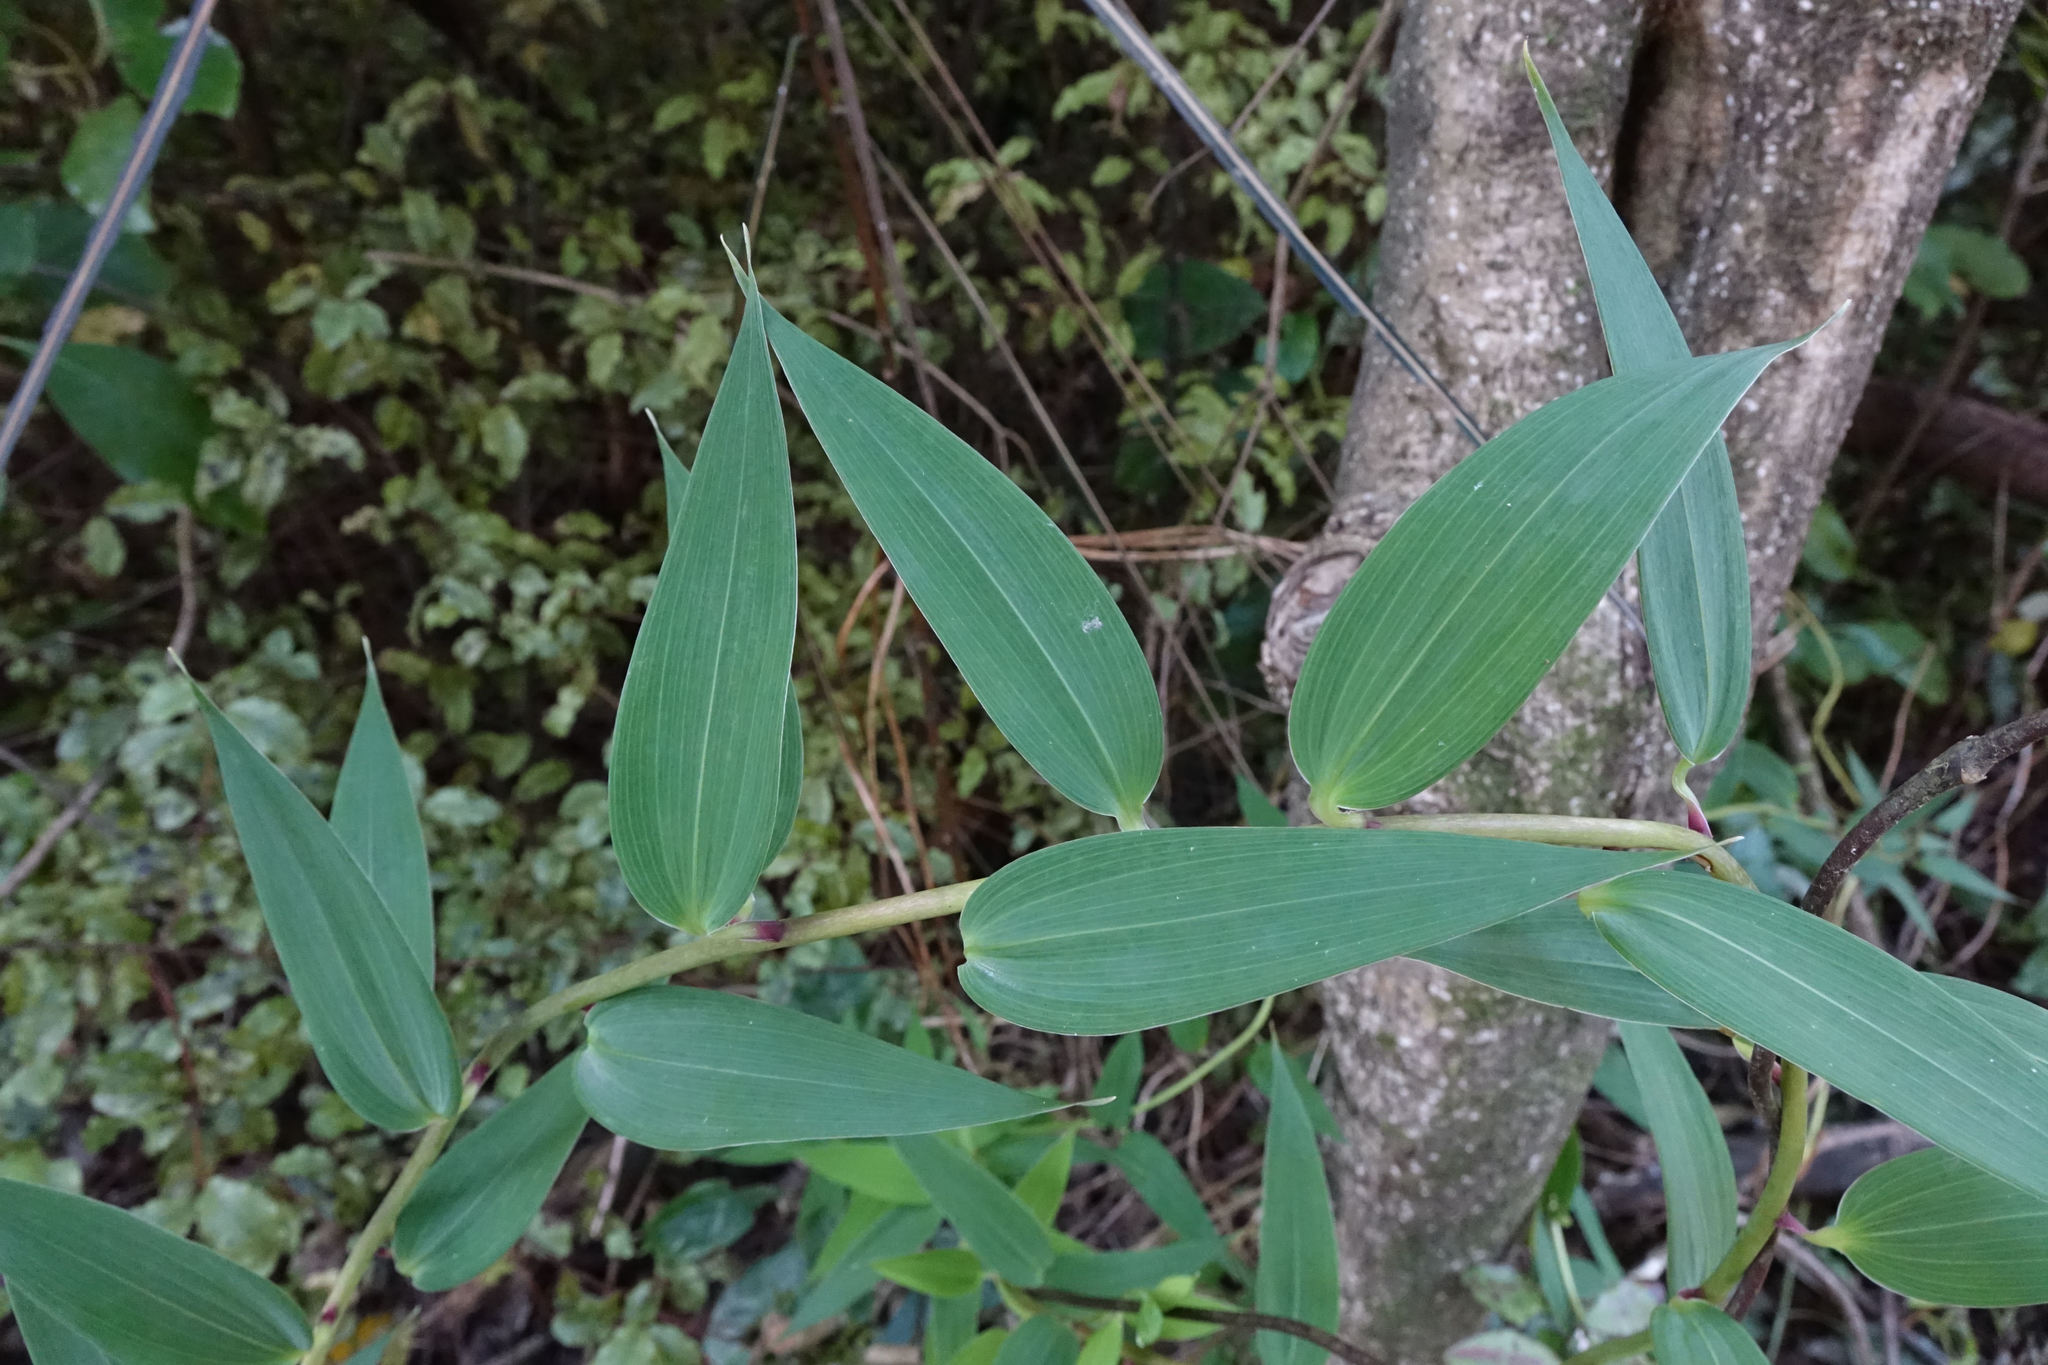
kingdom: Plantae
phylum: Tracheophyta
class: Liliopsida
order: Liliales
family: Alstroemeriaceae
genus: Bomarea
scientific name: Bomarea multiflora
